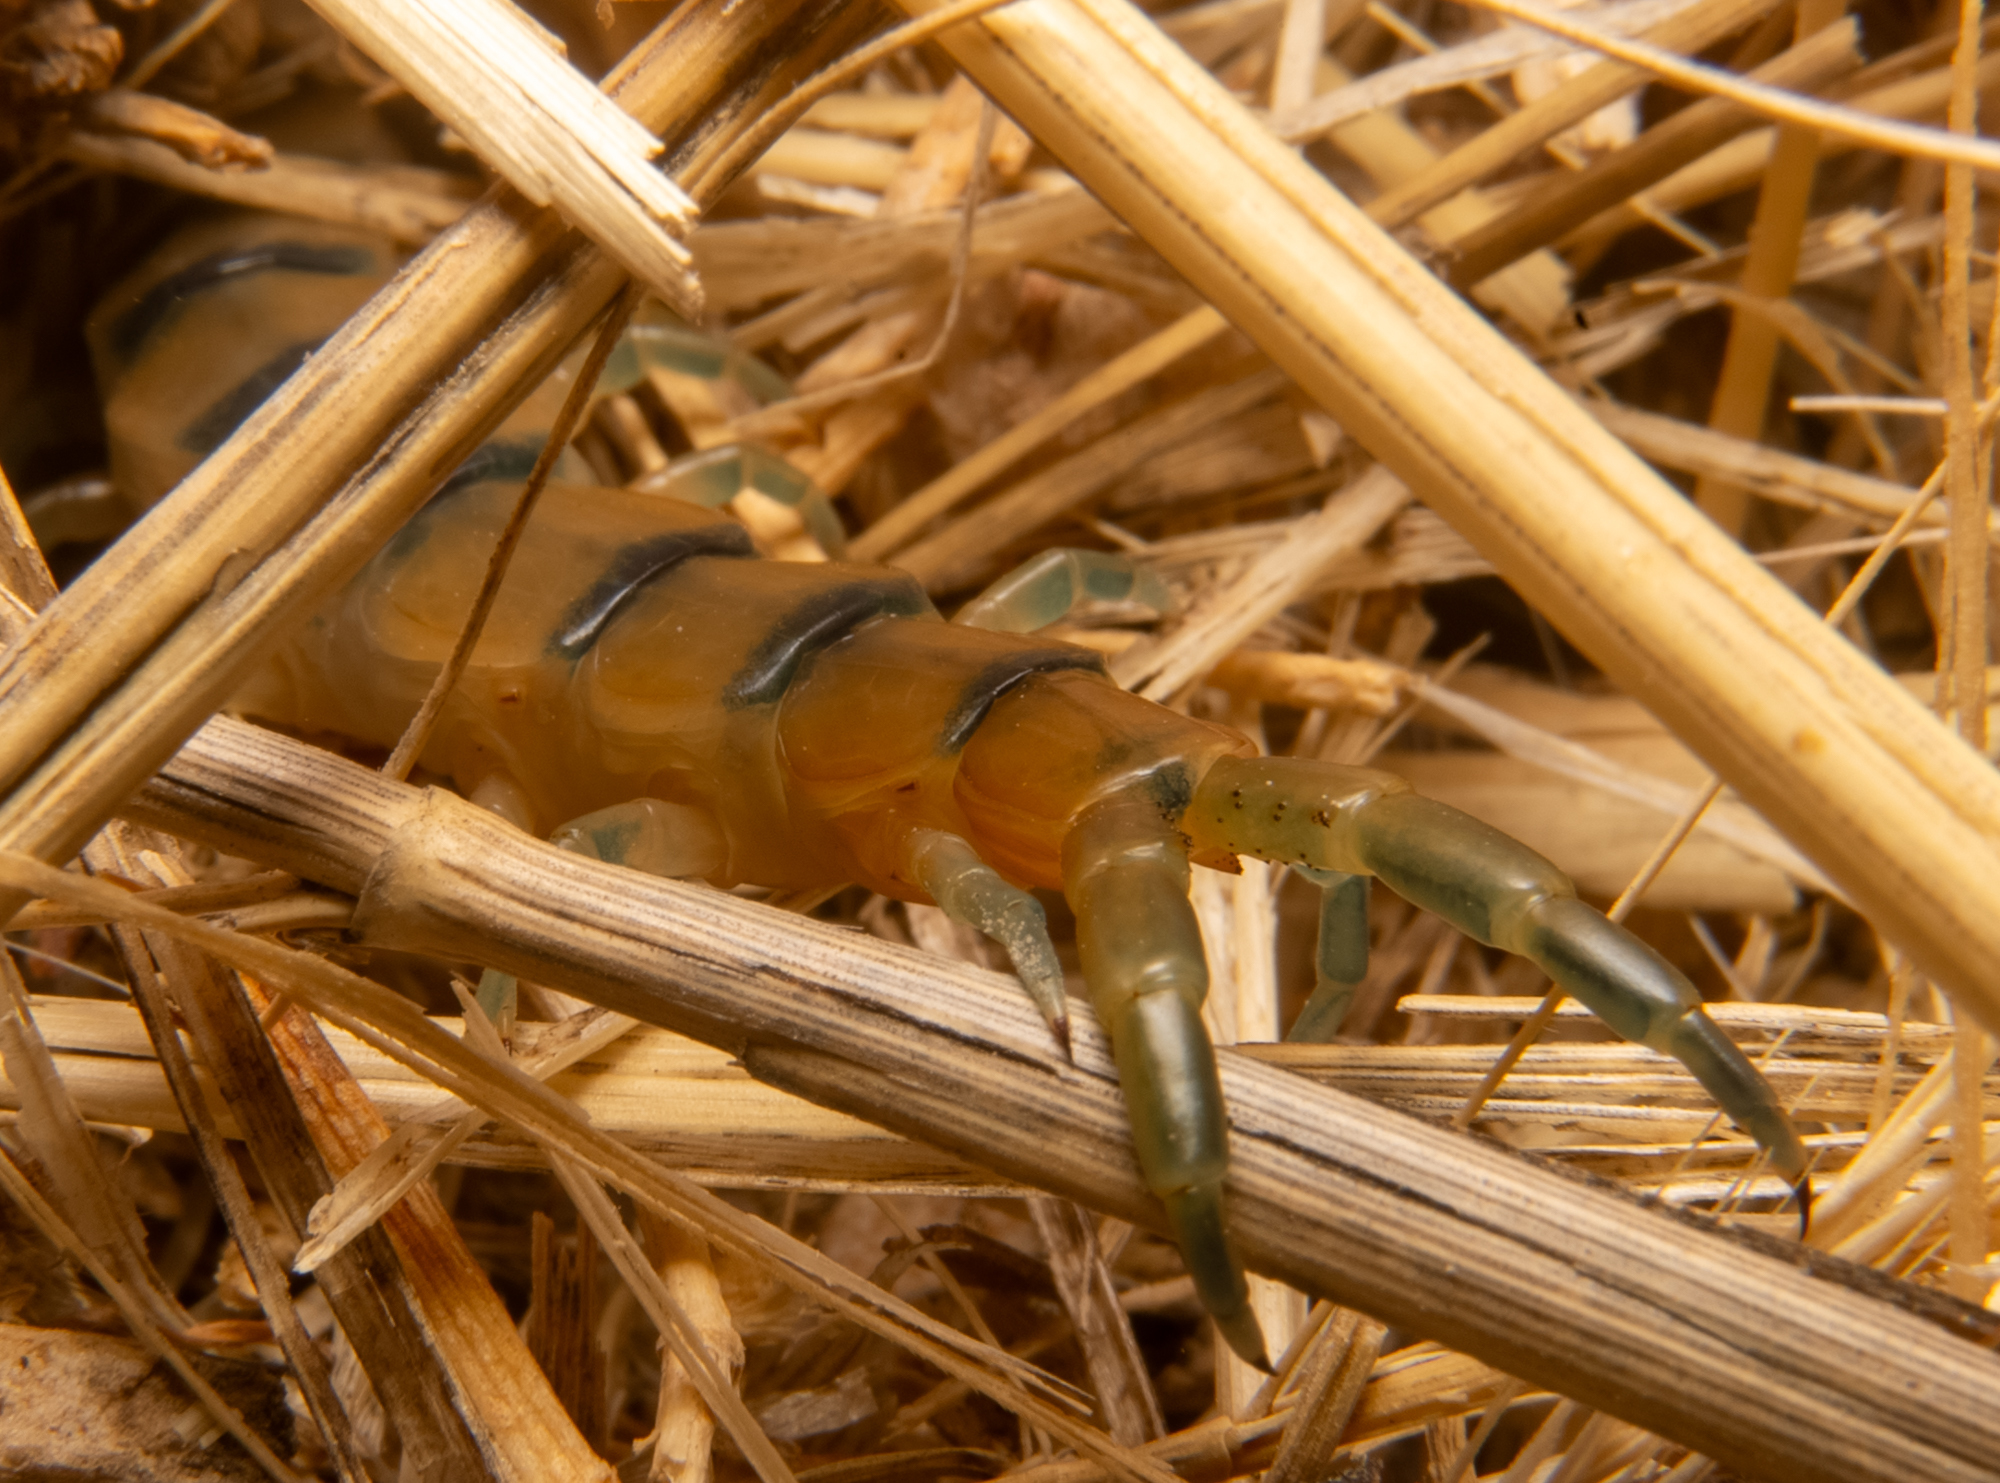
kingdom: Animalia
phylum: Arthropoda
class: Chilopoda
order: Scolopendromorpha
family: Scolopendridae
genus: Scolopendra
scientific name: Scolopendra polymorpha
